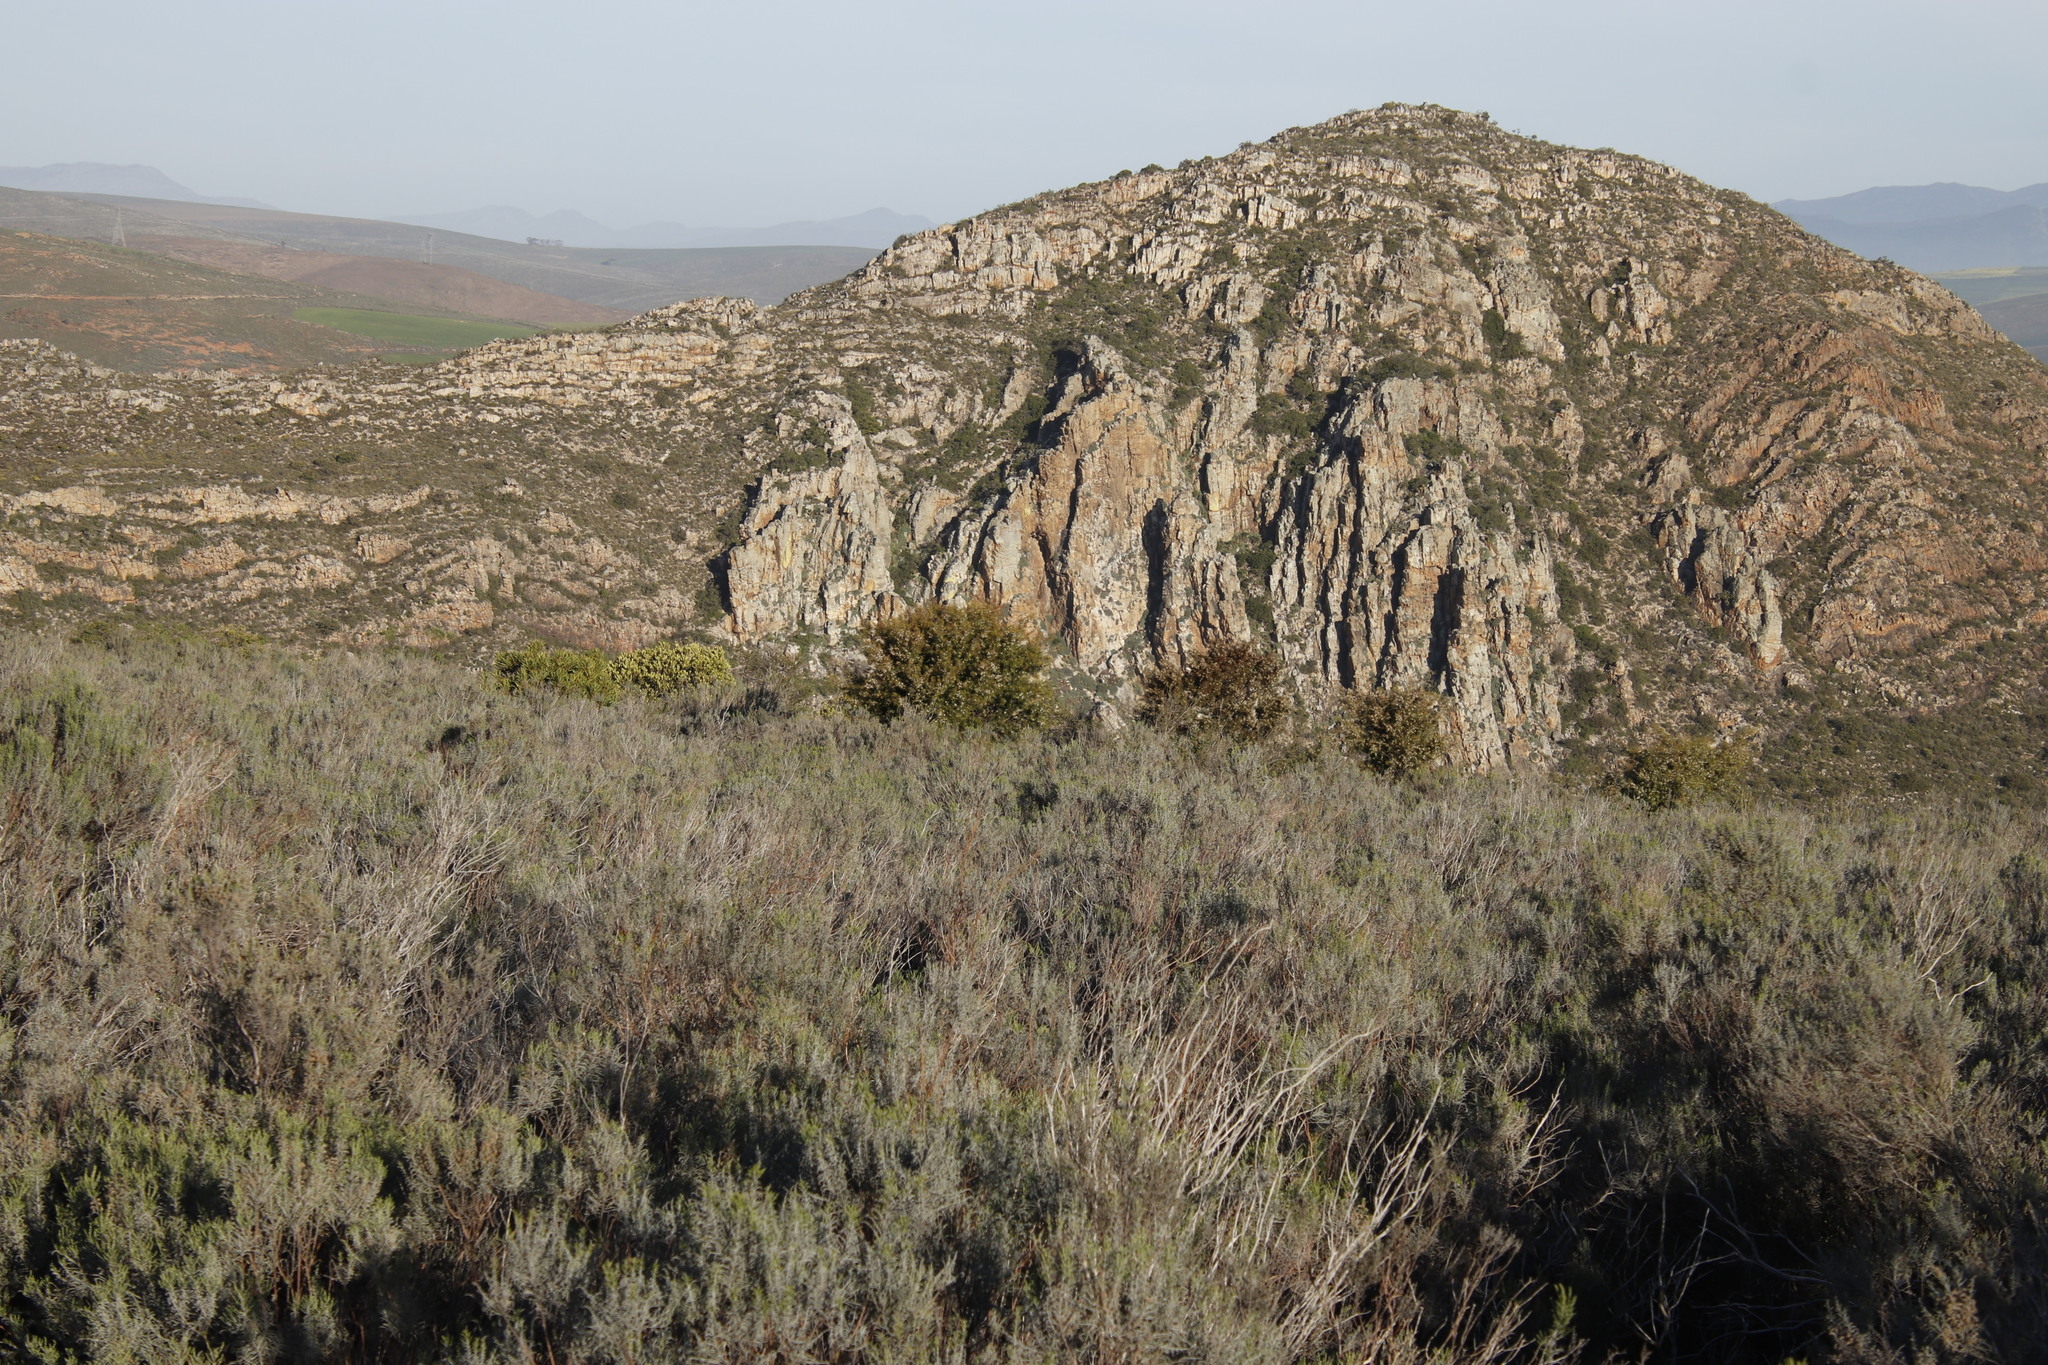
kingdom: Plantae
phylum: Tracheophyta
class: Magnoliopsida
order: Proteales
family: Proteaceae
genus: Hakea
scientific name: Hakea sericea
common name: Needle bush
